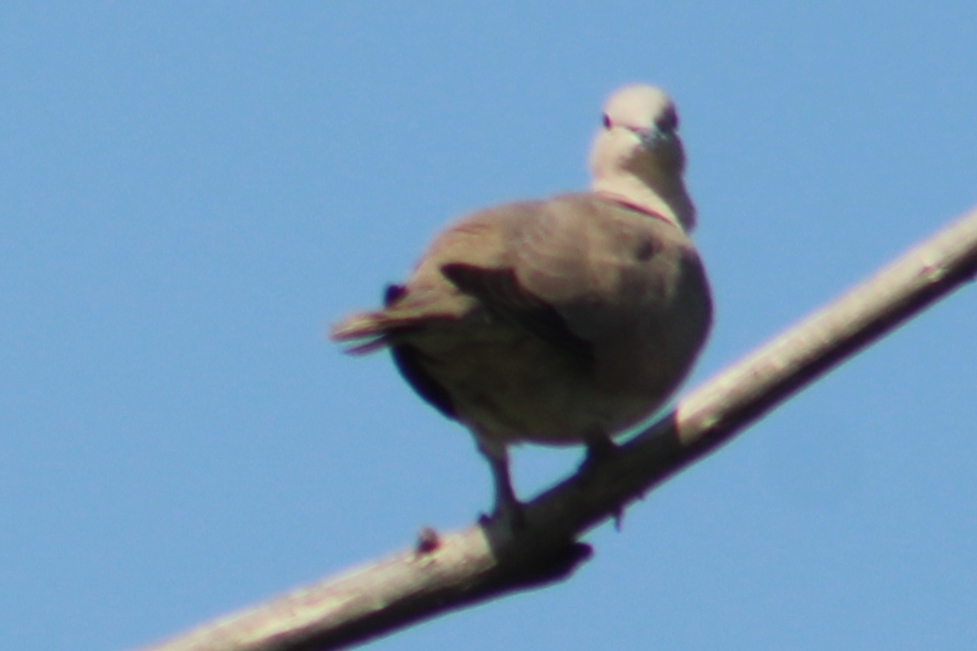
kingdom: Animalia
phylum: Chordata
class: Aves
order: Columbiformes
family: Columbidae
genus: Streptopelia
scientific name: Streptopelia decaocto
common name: Eurasian collared dove
